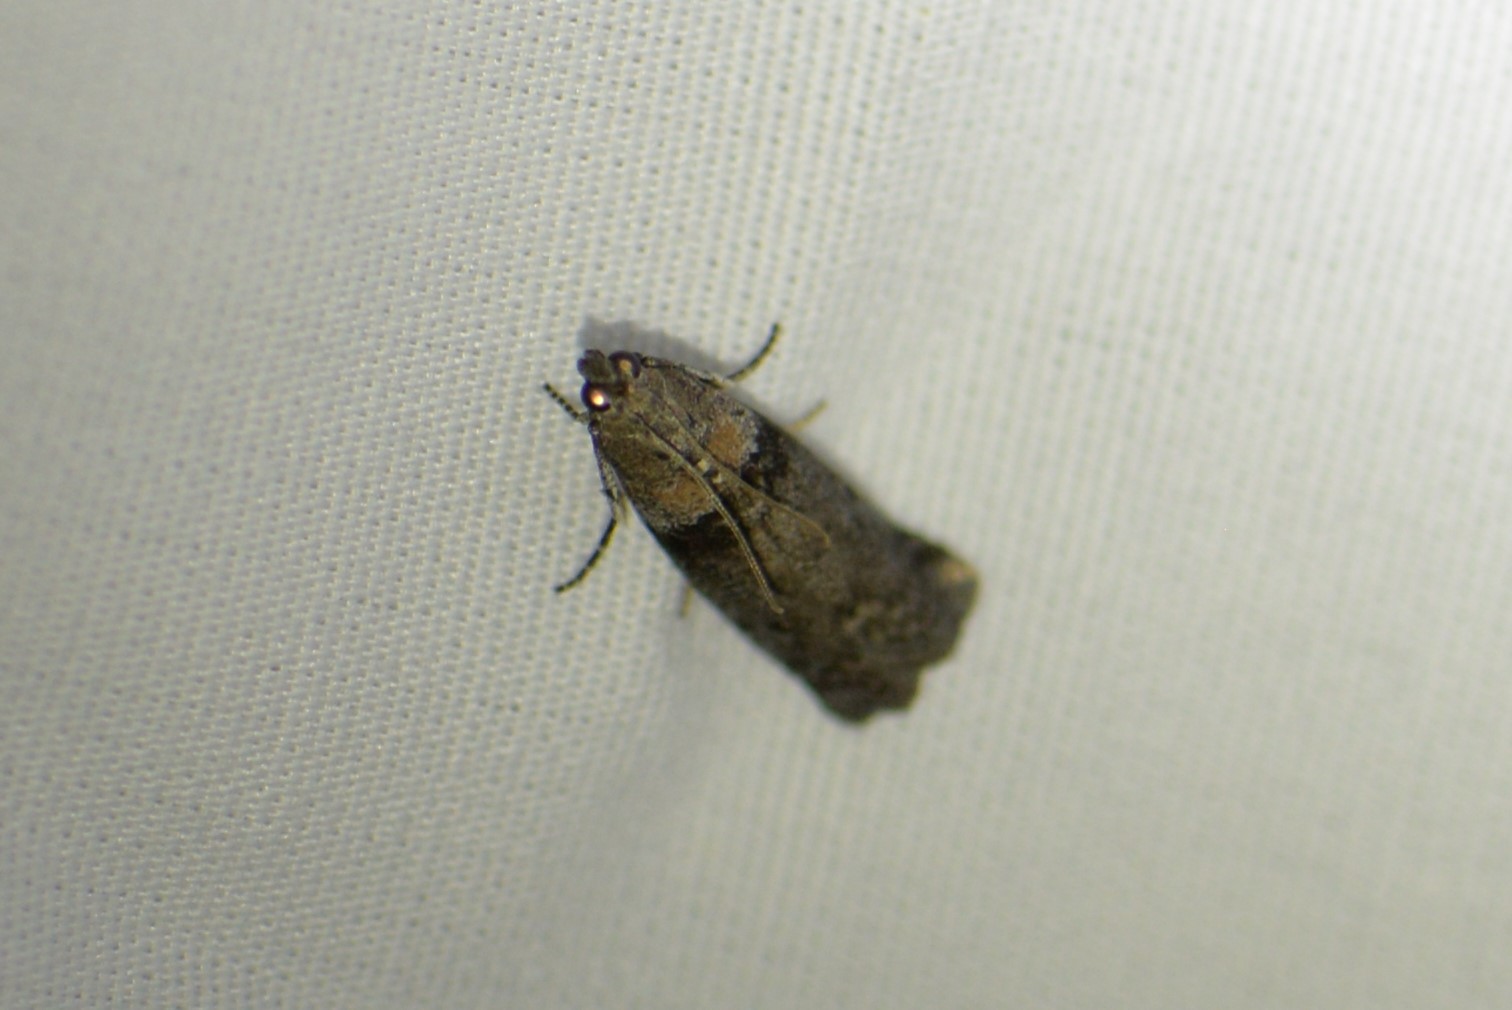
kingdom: Animalia
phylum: Arthropoda
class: Insecta
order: Lepidoptera
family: Pyralidae
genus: Myelopsis
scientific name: Myelopsis subtetricella
